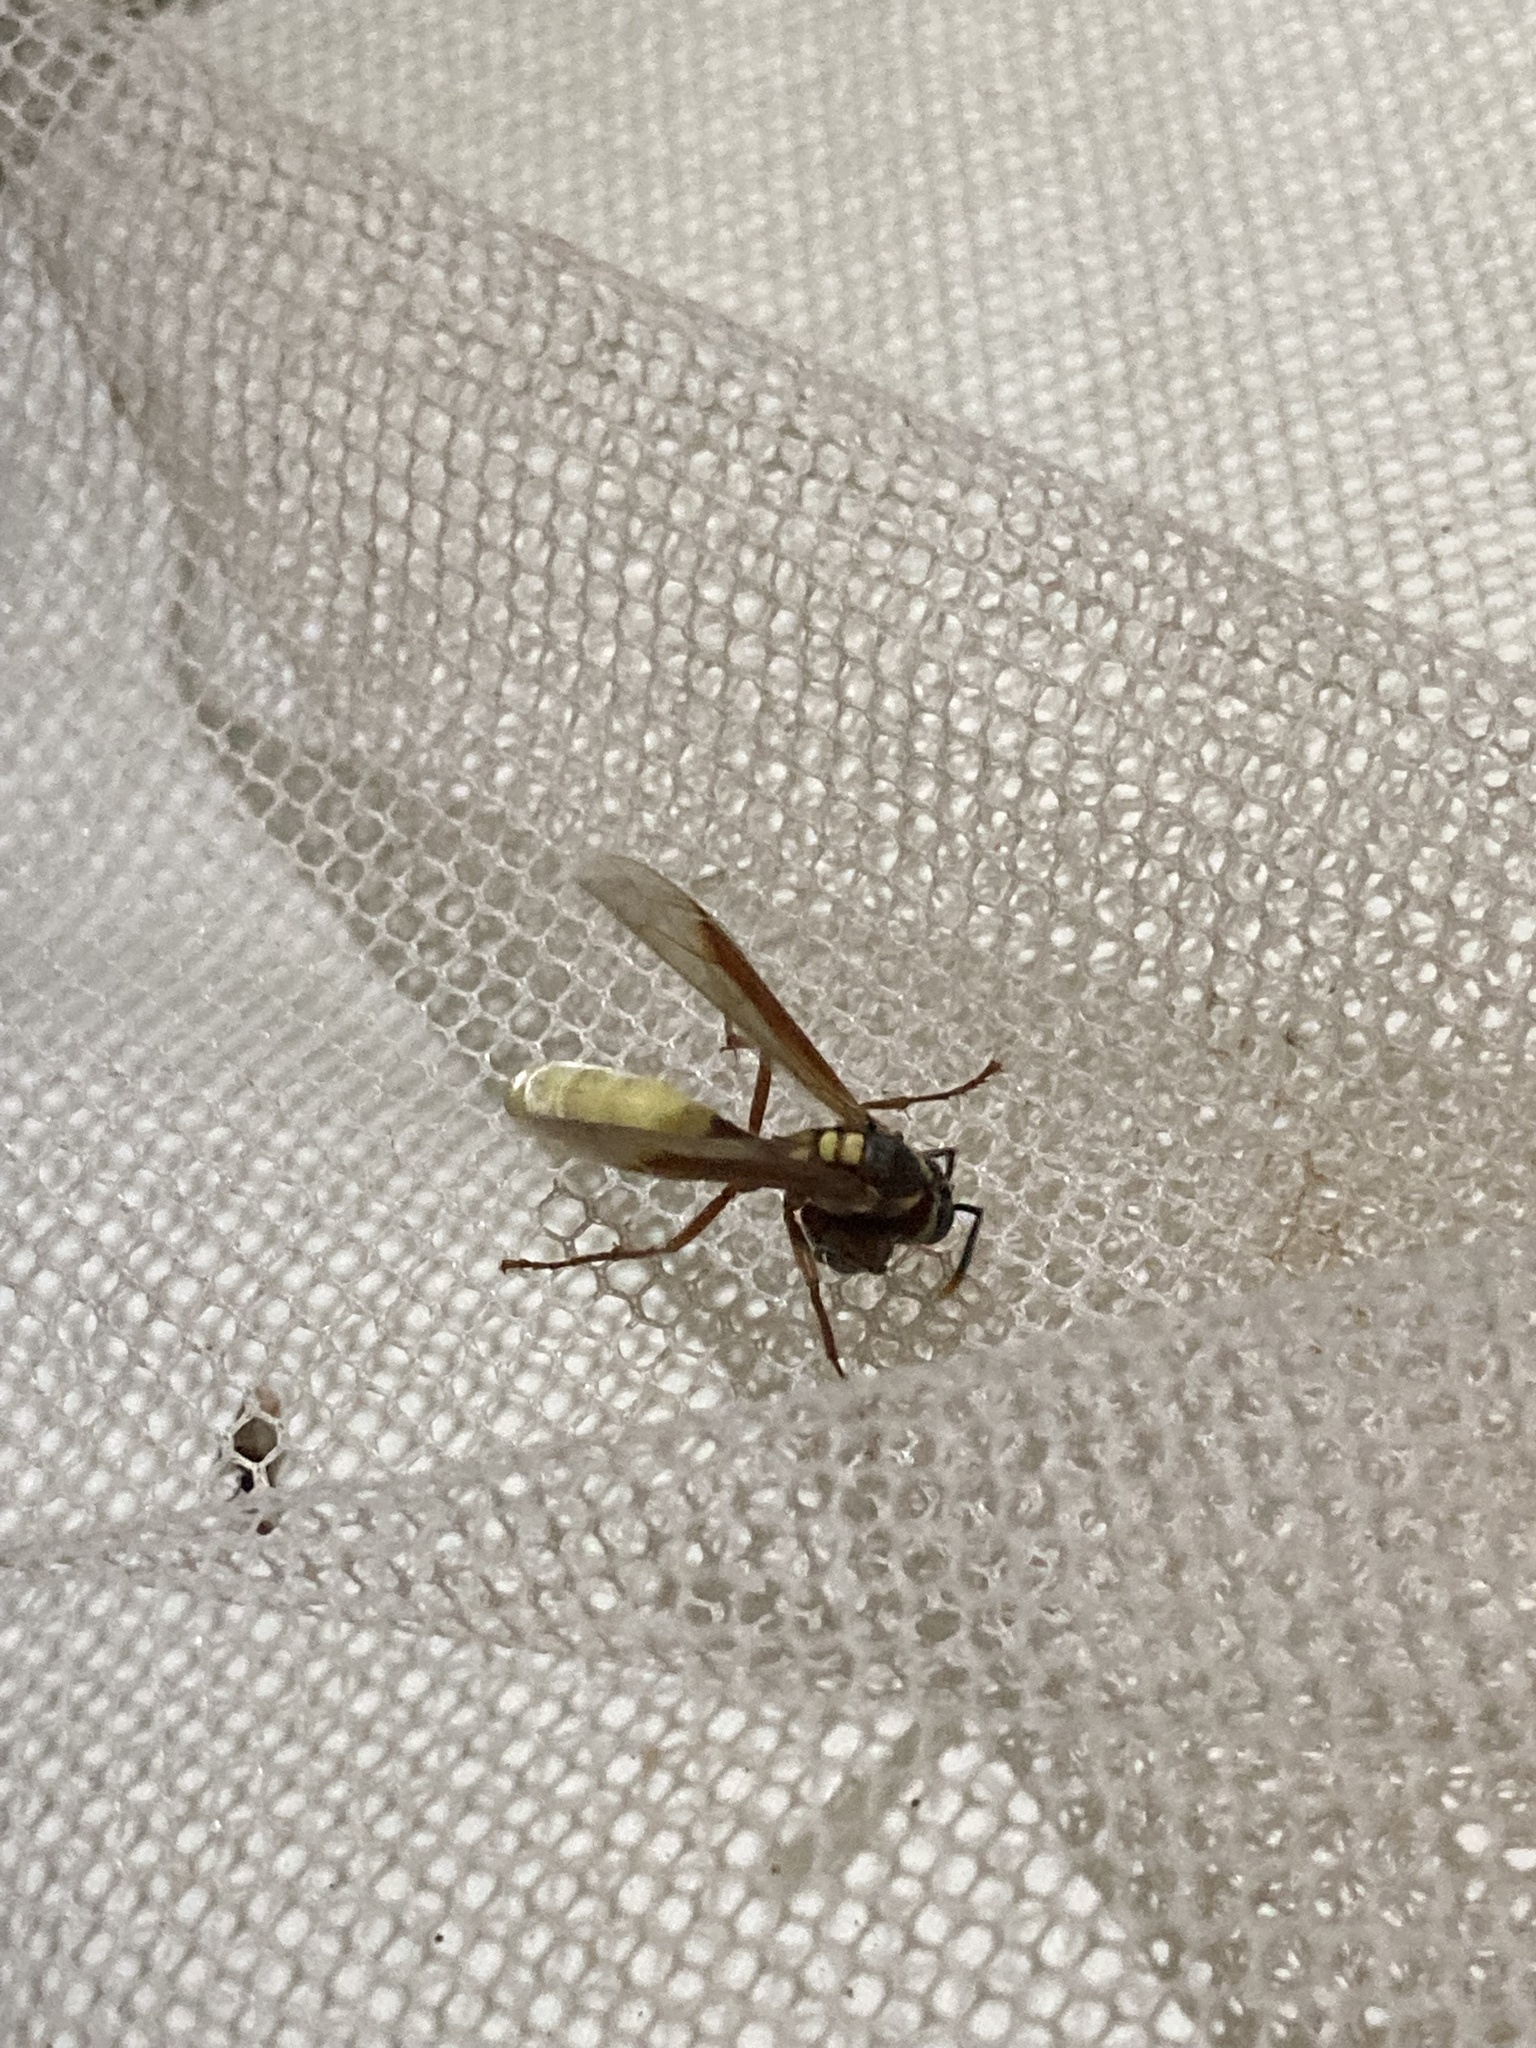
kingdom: Animalia
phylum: Arthropoda
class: Insecta
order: Hymenoptera
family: Vespidae
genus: Apoica
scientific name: Apoica pallens
